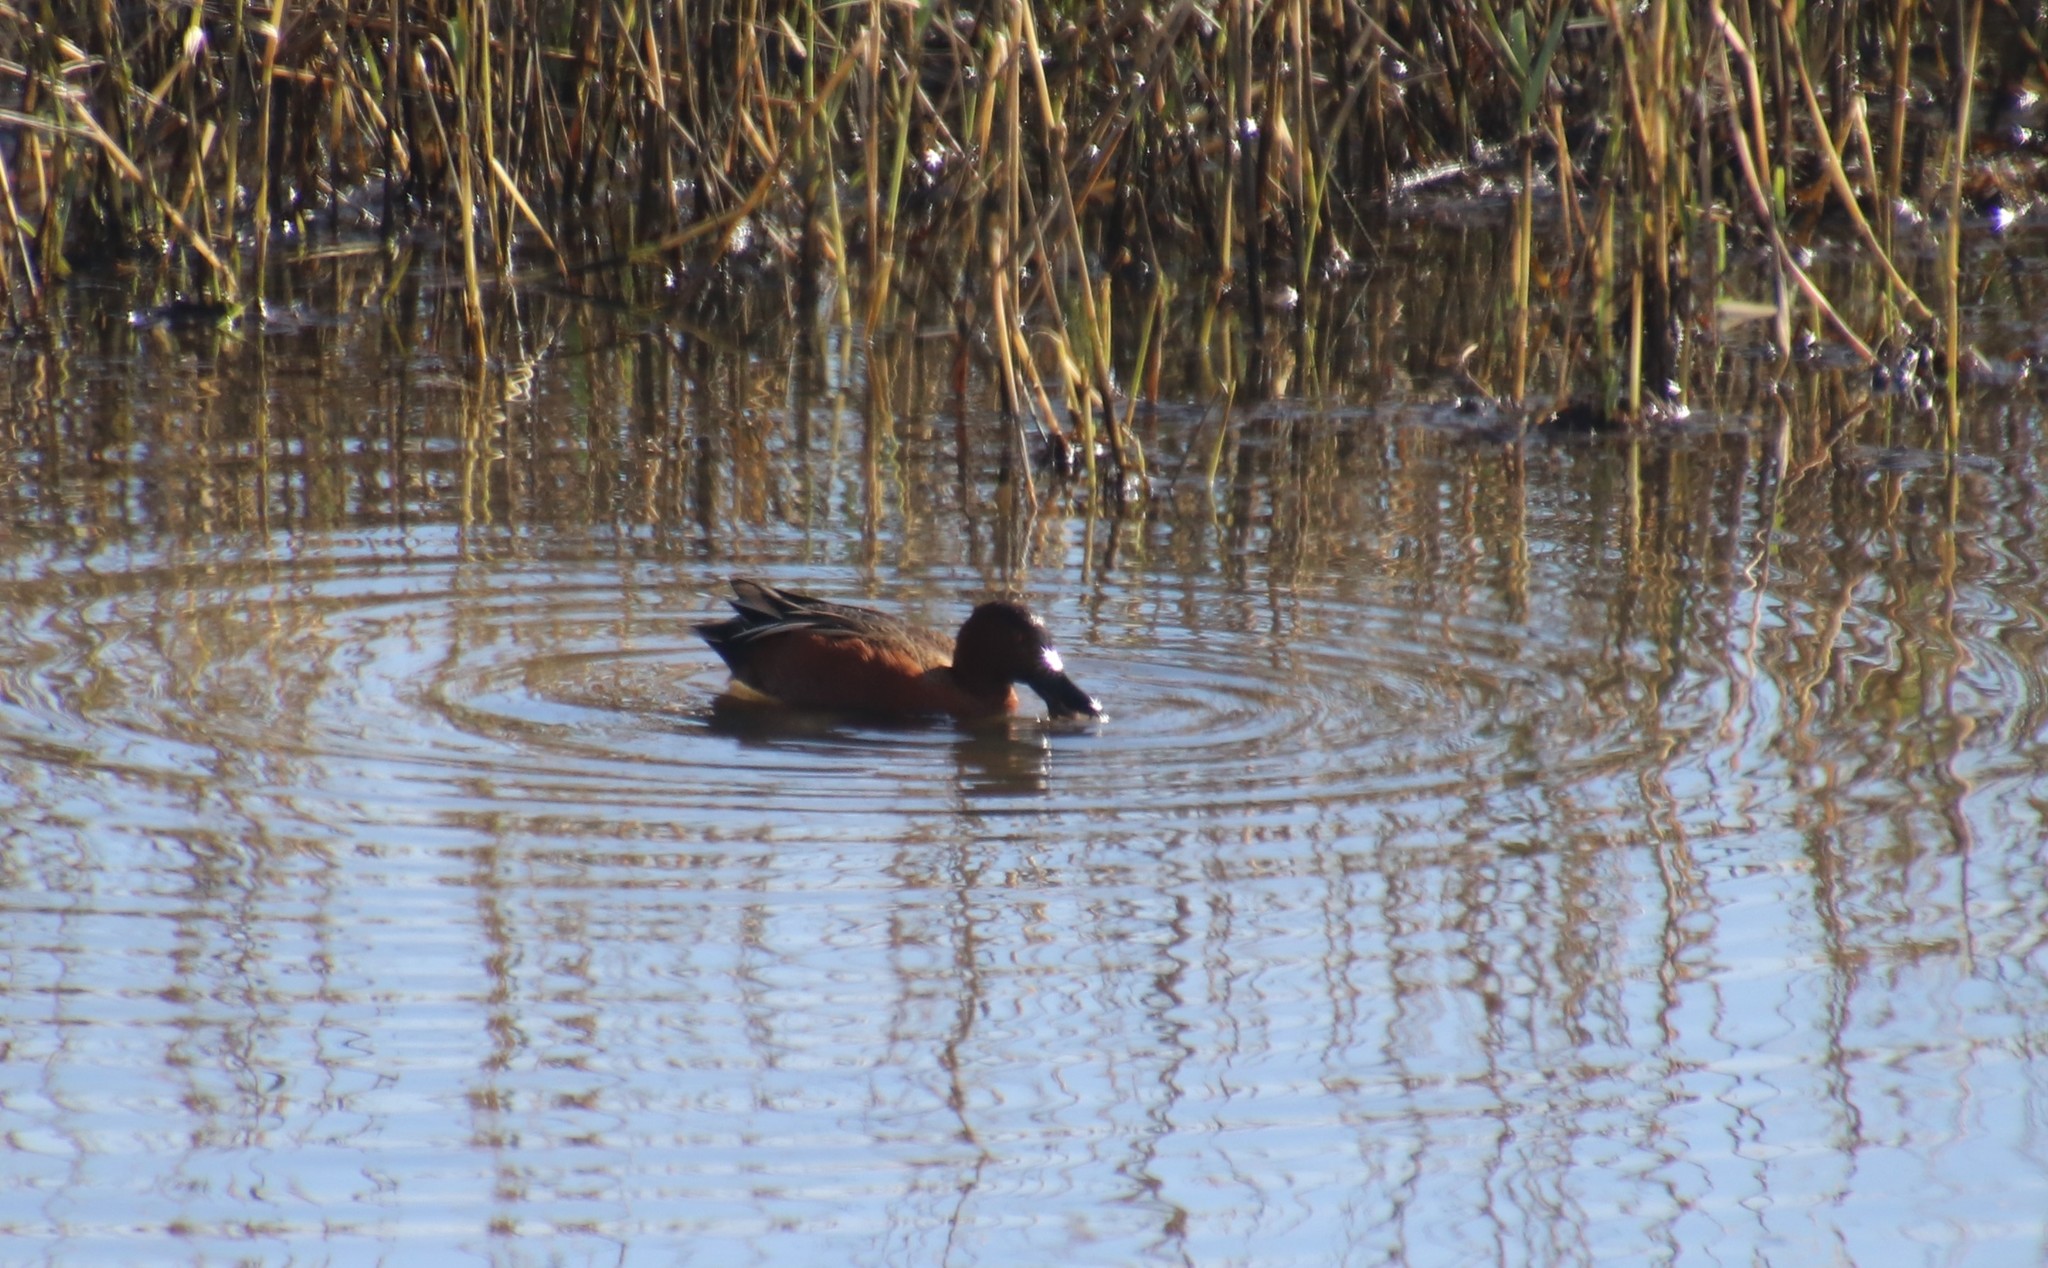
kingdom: Animalia
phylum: Chordata
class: Aves
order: Anseriformes
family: Anatidae
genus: Spatula
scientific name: Spatula cyanoptera
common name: Cinnamon teal
